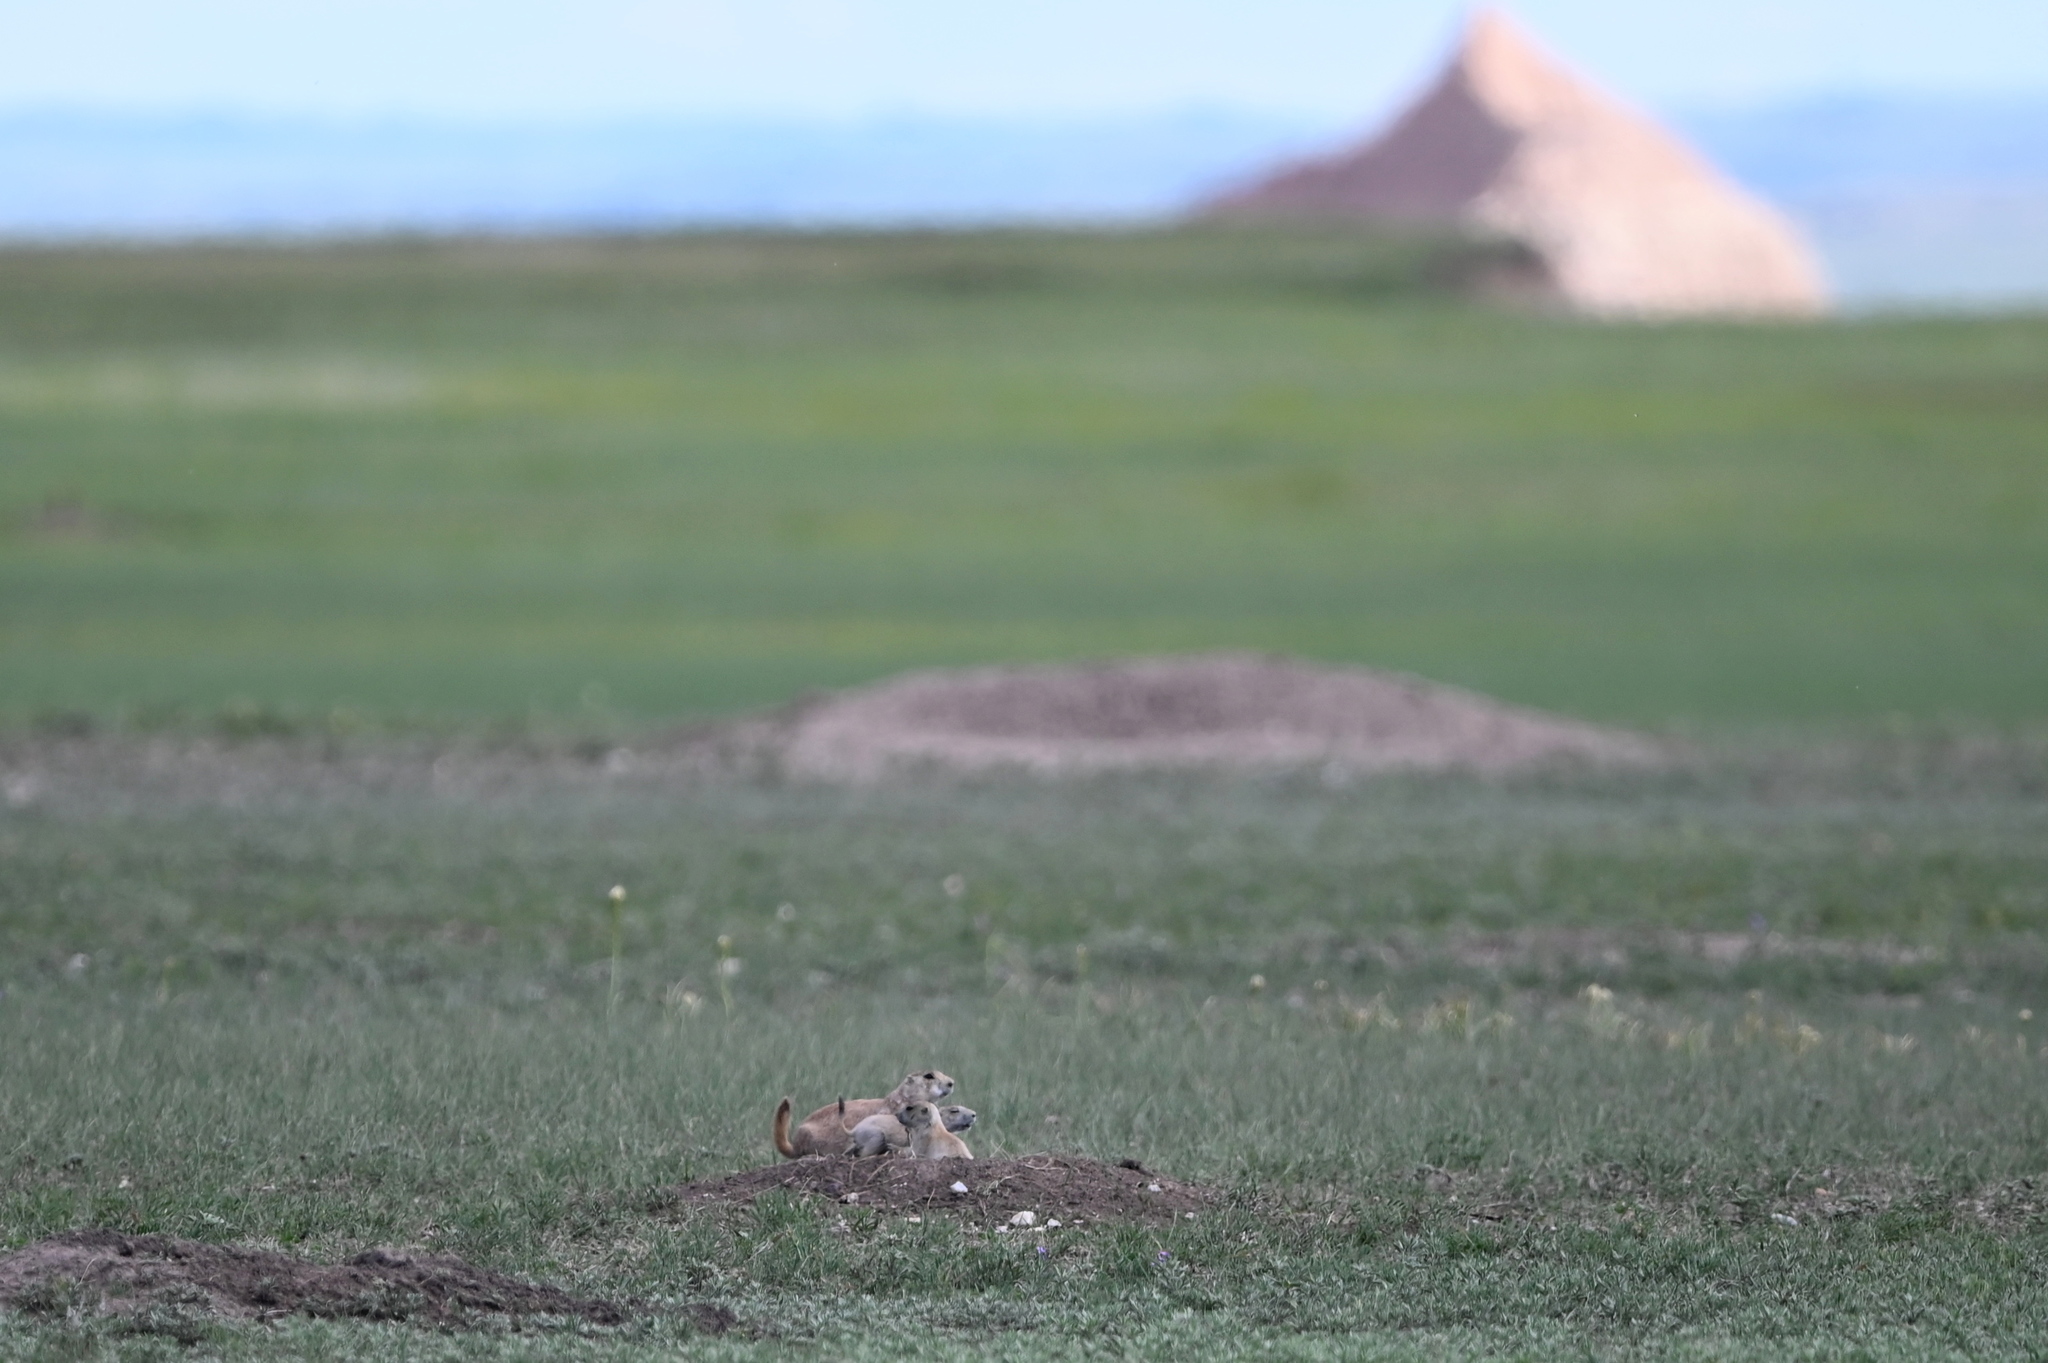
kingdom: Animalia
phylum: Chordata
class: Mammalia
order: Rodentia
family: Sciuridae
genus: Cynomys
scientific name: Cynomys ludovicianus
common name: Black-tailed prairie dog
